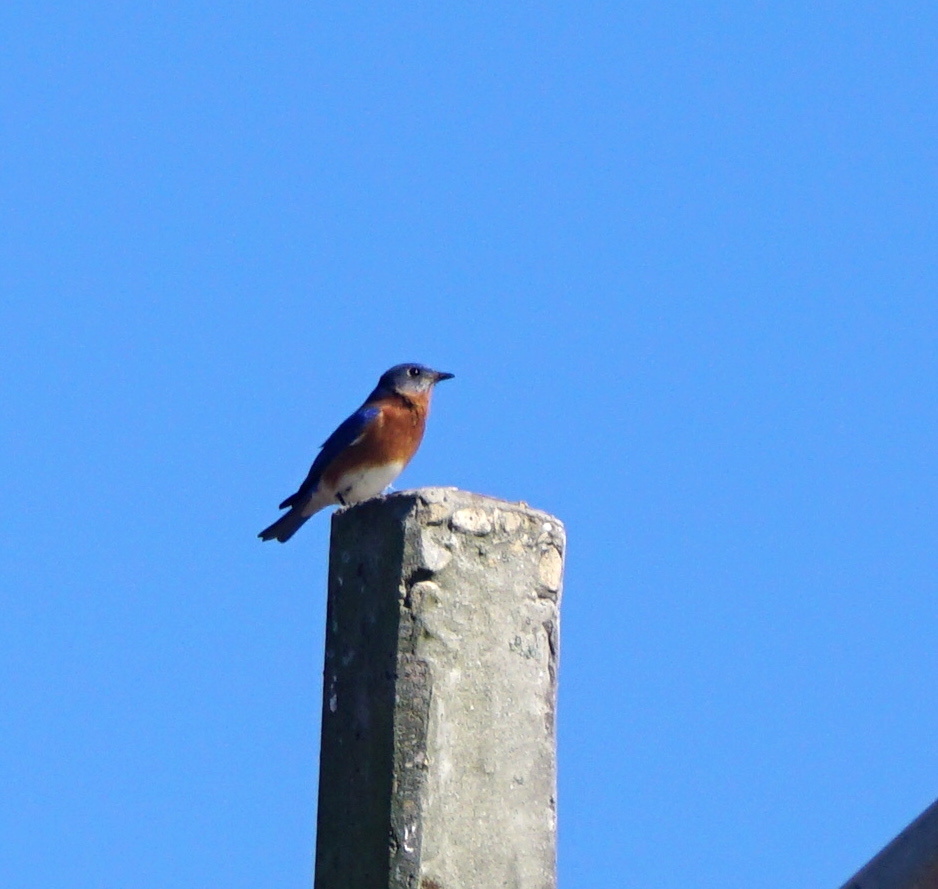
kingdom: Animalia
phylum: Chordata
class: Aves
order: Passeriformes
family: Turdidae
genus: Sialia
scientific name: Sialia sialis
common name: Eastern bluebird
